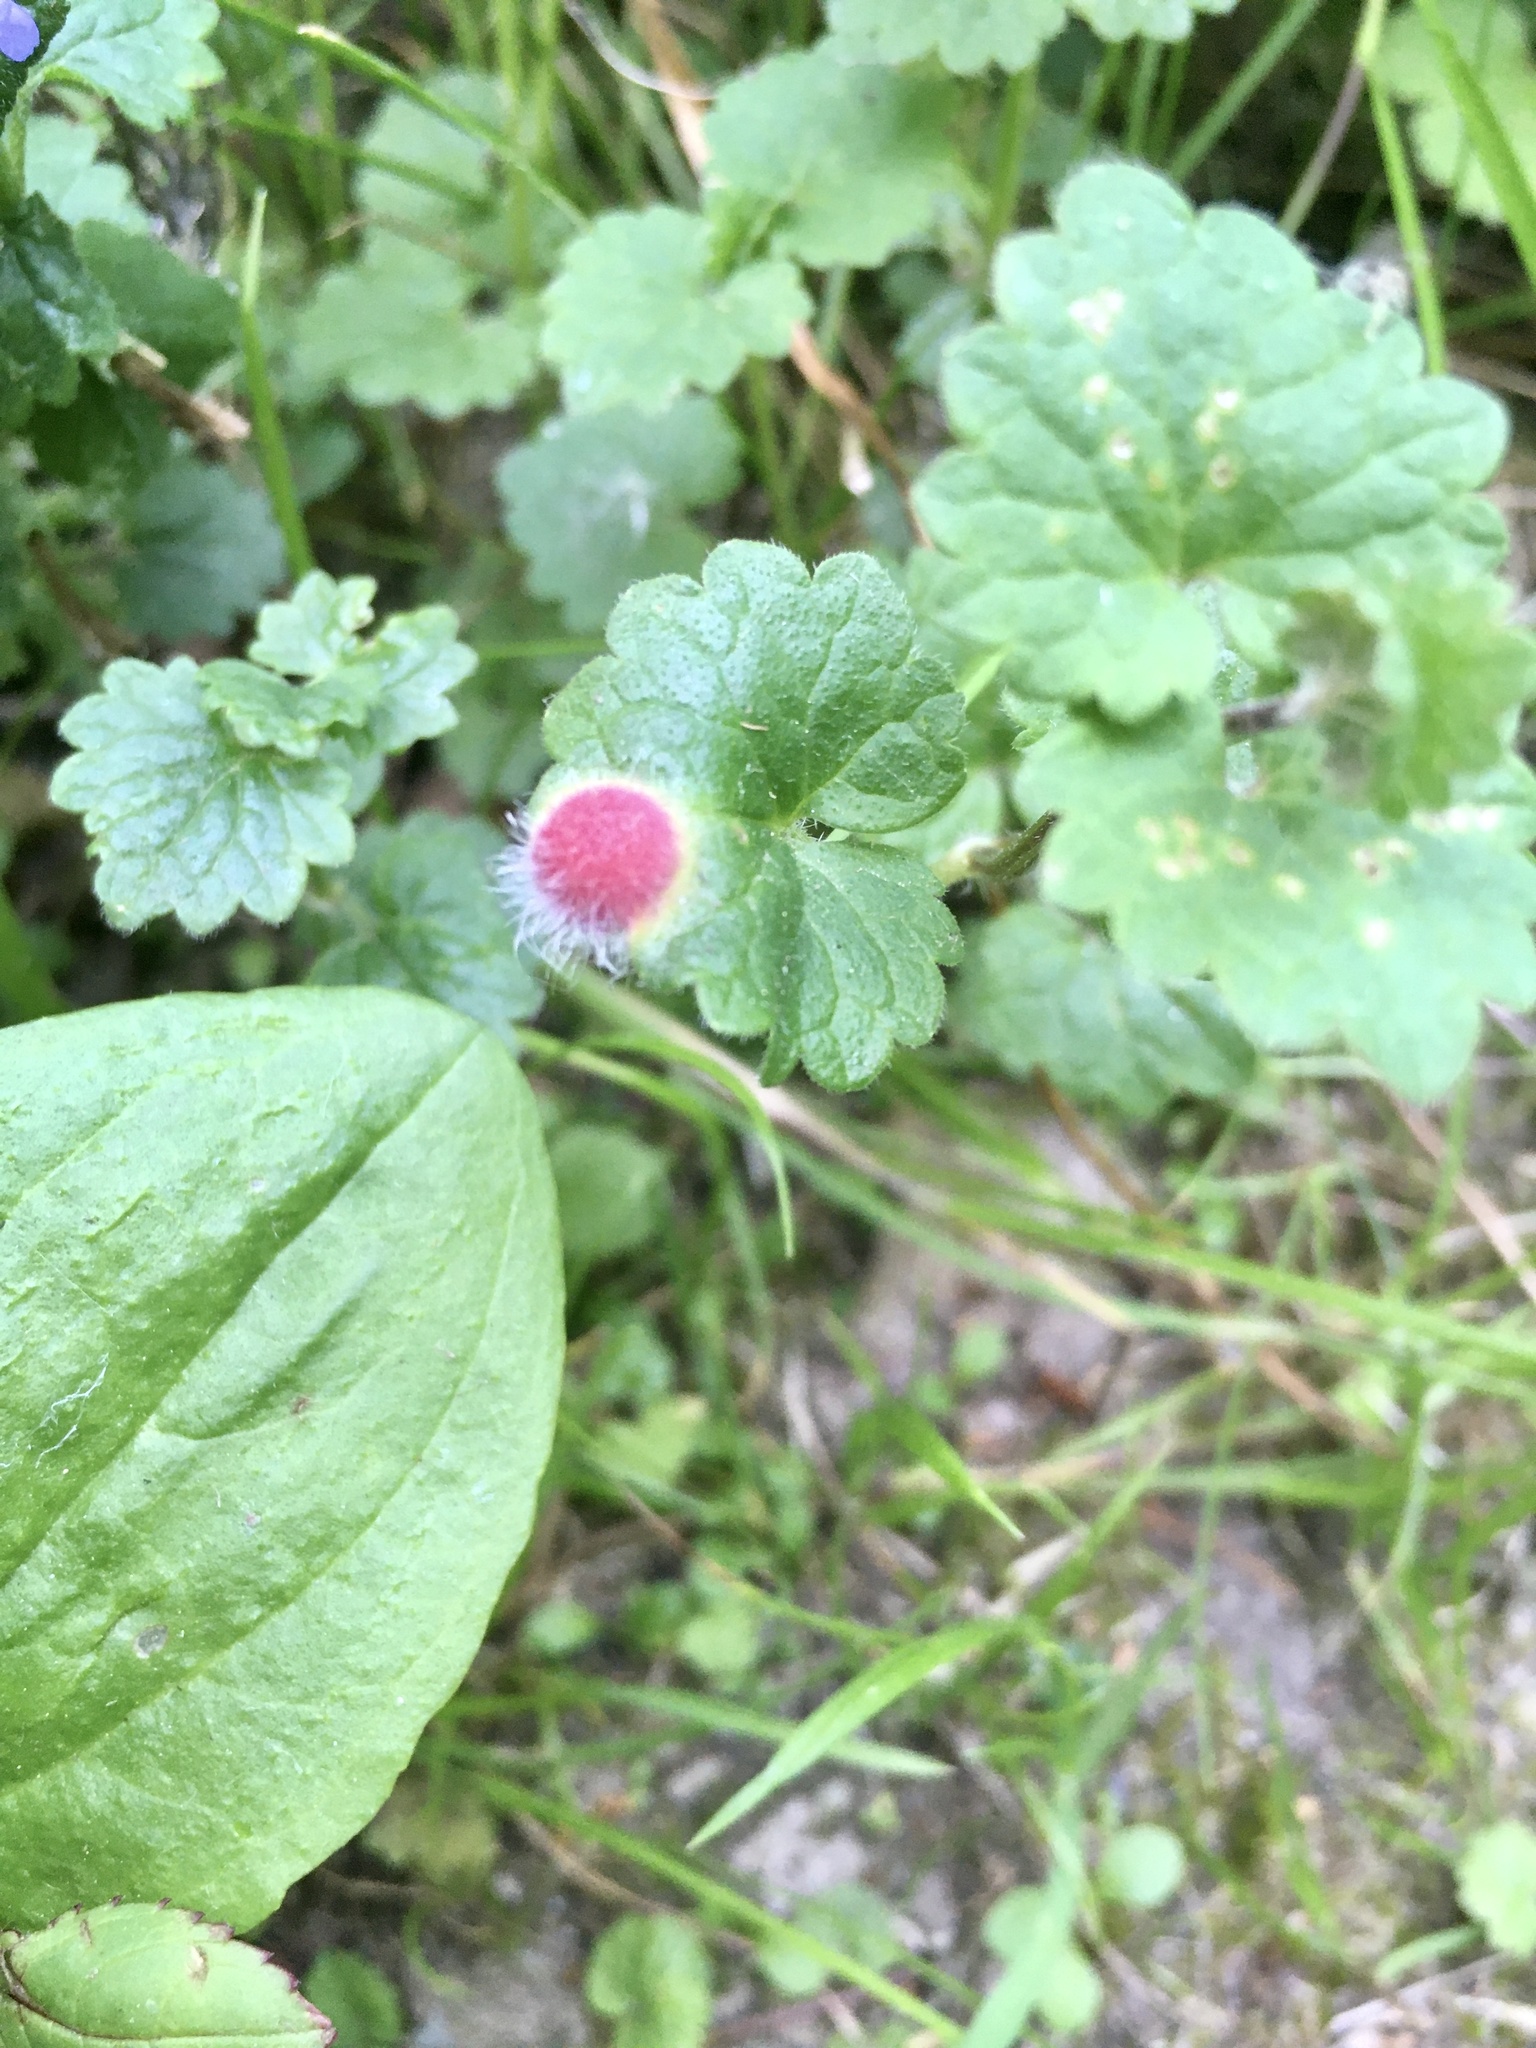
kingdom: Animalia
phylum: Arthropoda
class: Insecta
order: Hymenoptera
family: Cynipidae
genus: Liposthenes
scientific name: Liposthenes glechomae
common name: Gall wasp
